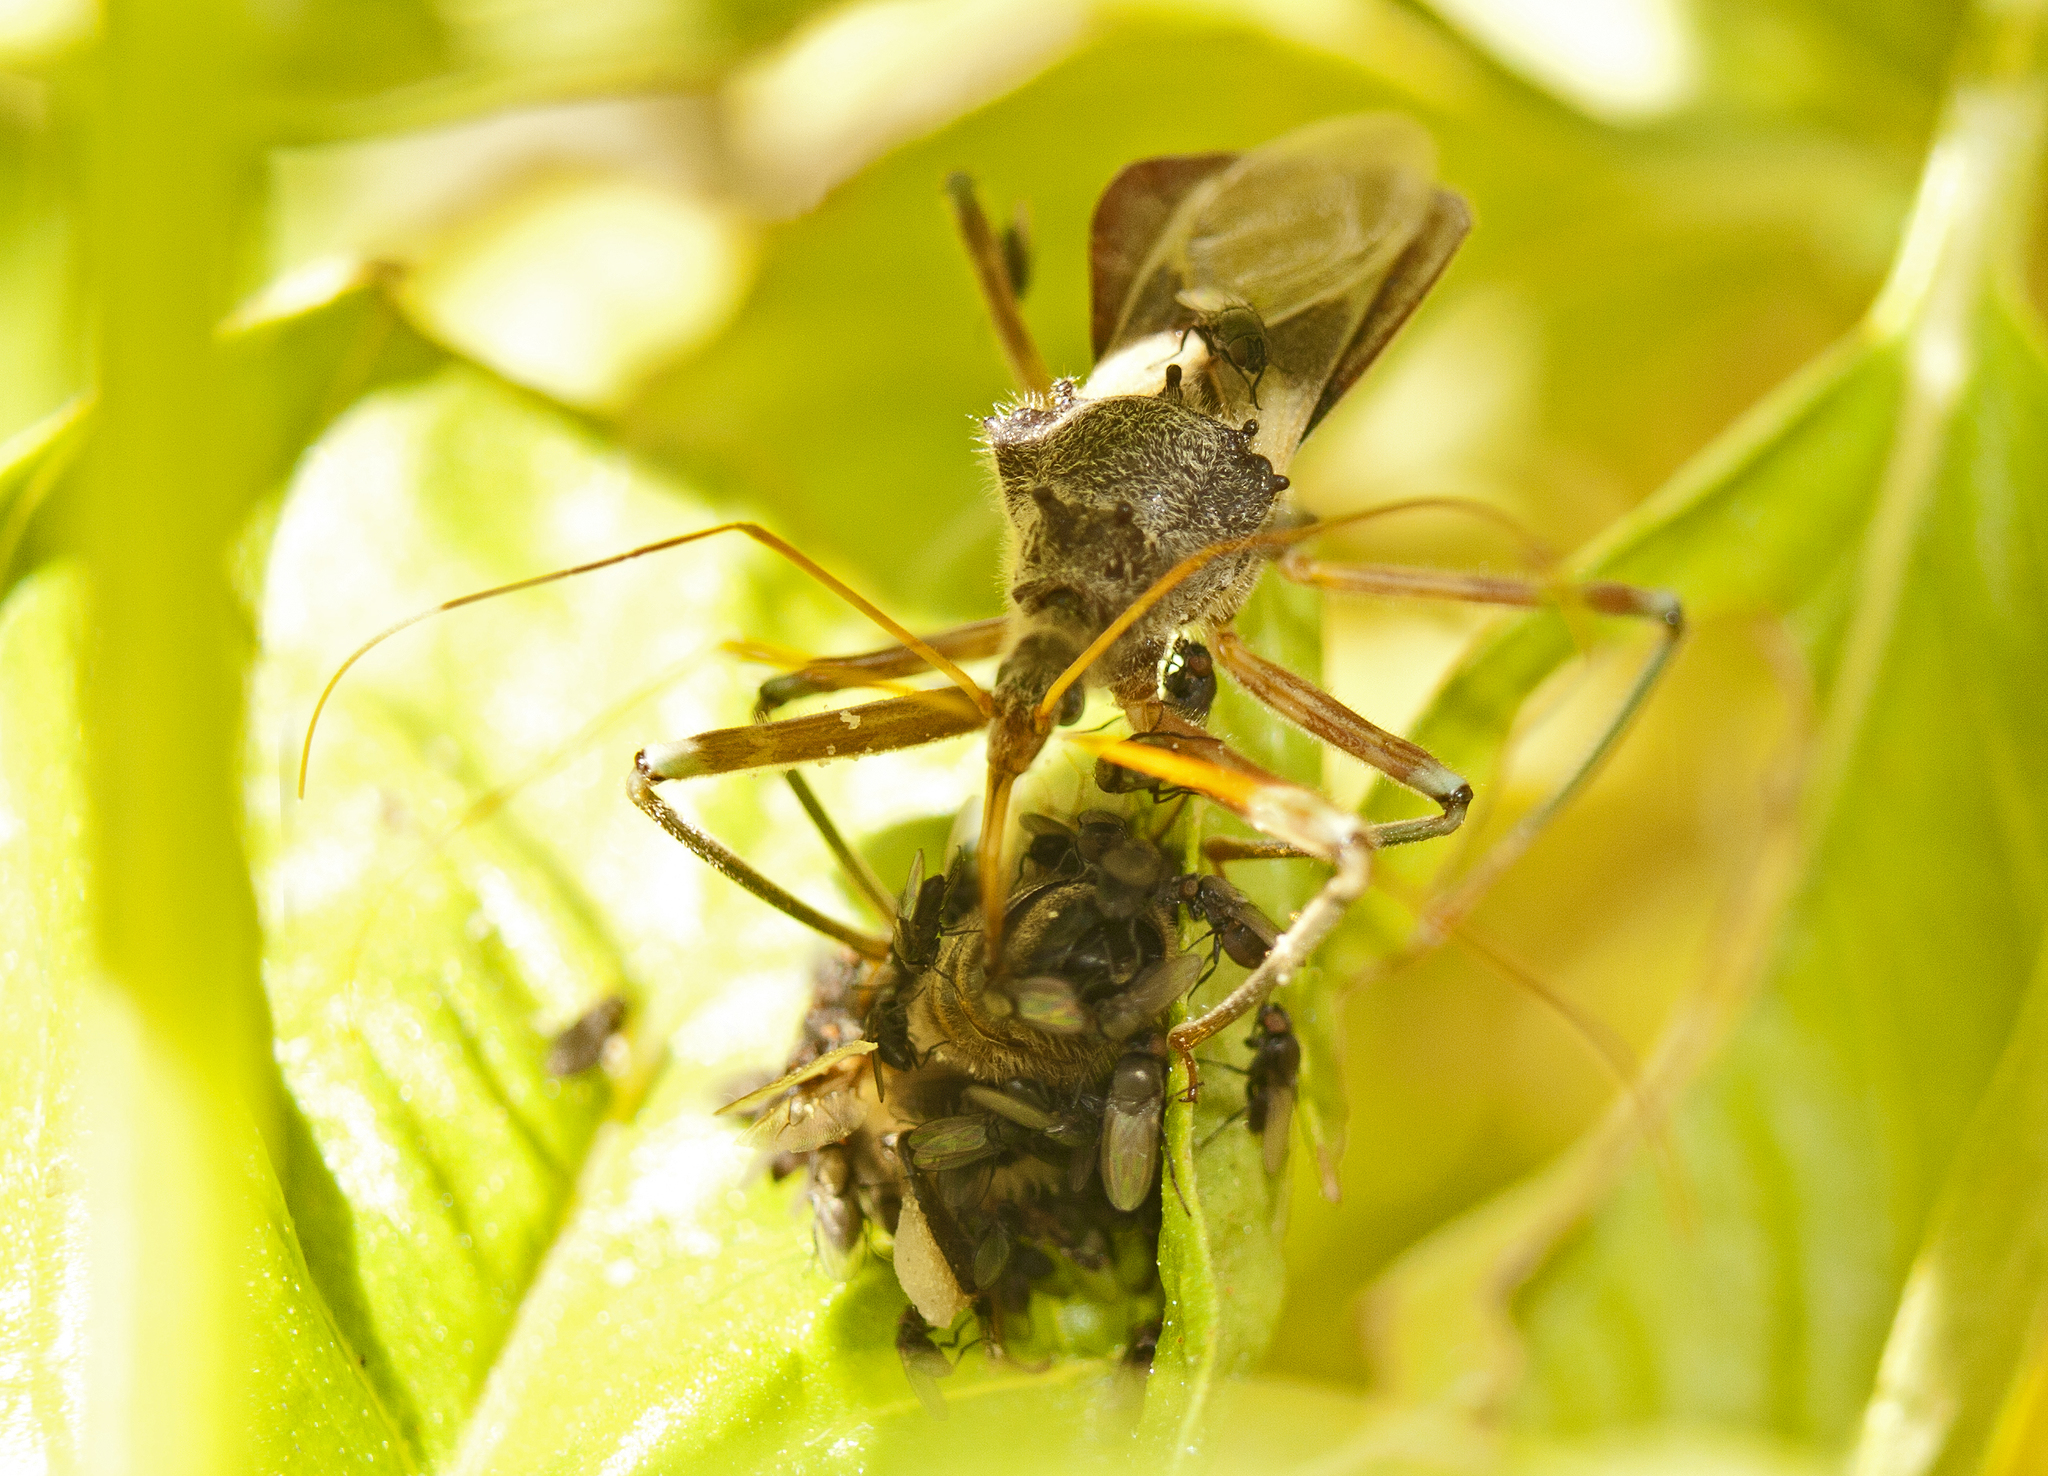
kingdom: Animalia
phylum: Arthropoda
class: Insecta
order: Hemiptera
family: Reduviidae
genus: Pristhesancus
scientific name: Pristhesancus plagipennis
